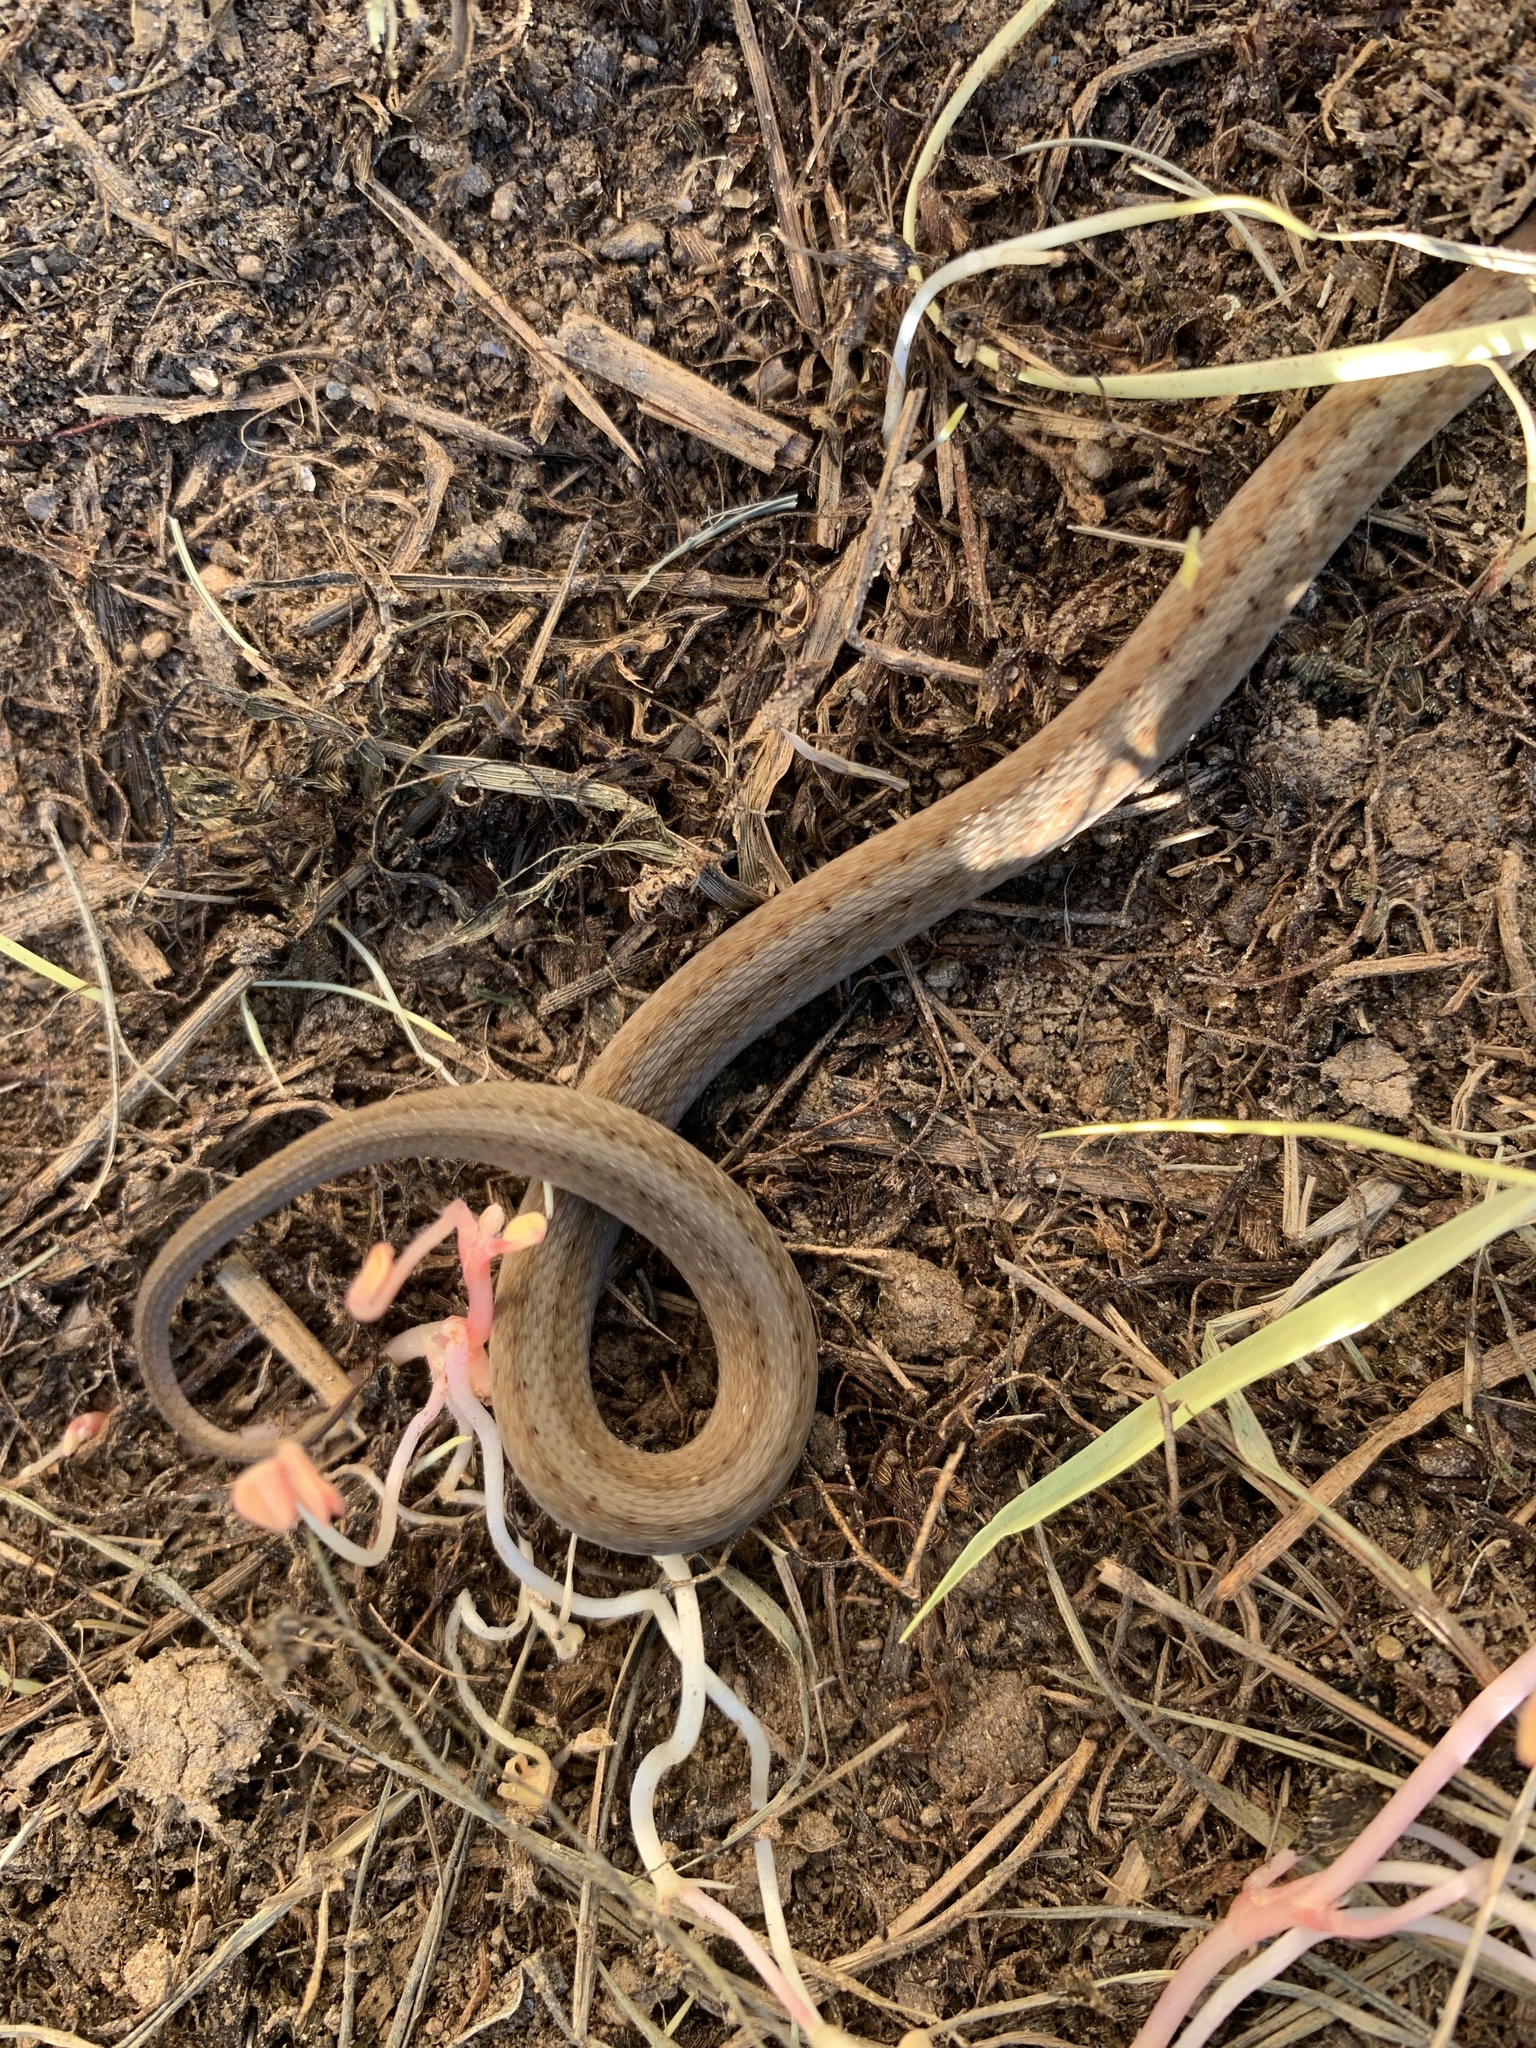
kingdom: Animalia
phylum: Chordata
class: Squamata
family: Colubridae
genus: Storeria
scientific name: Storeria dekayi
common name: (dekay’s) brown snake
